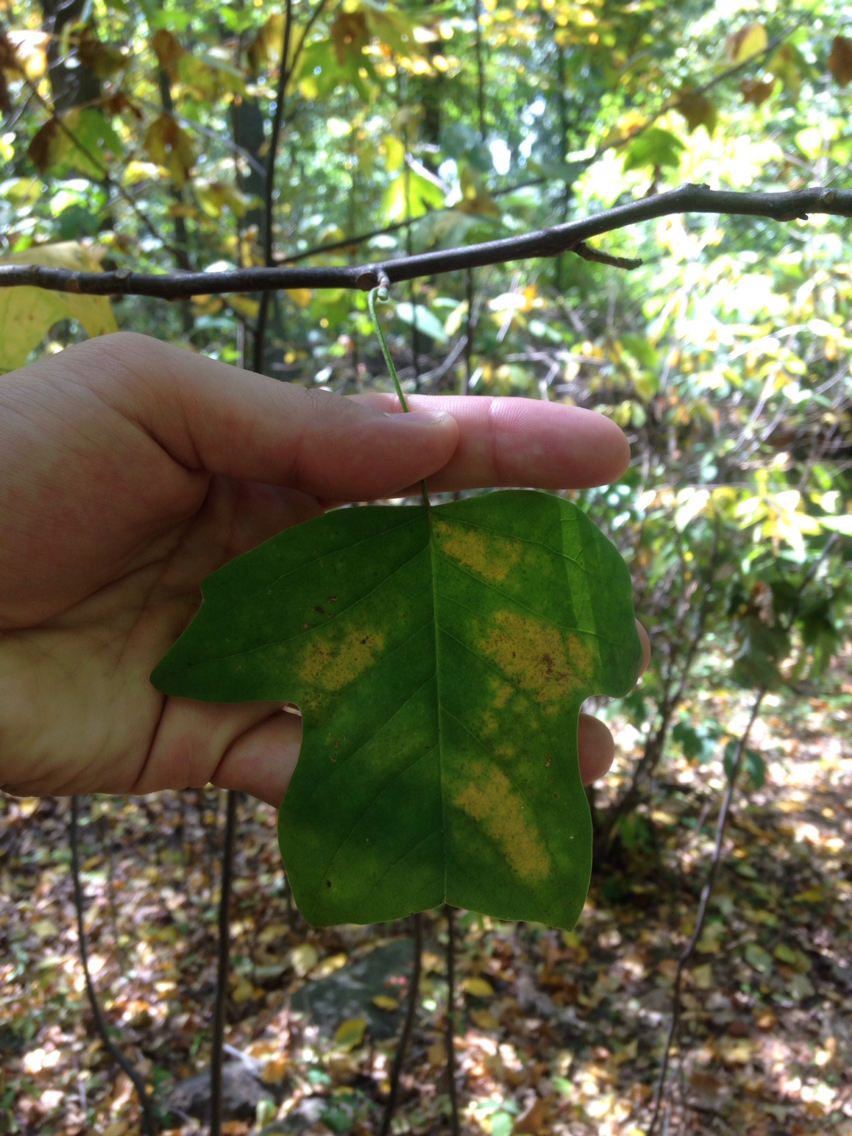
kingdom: Plantae
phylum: Tracheophyta
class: Magnoliopsida
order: Magnoliales
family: Magnoliaceae
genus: Liriodendron
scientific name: Liriodendron tulipifera
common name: Tulip tree
